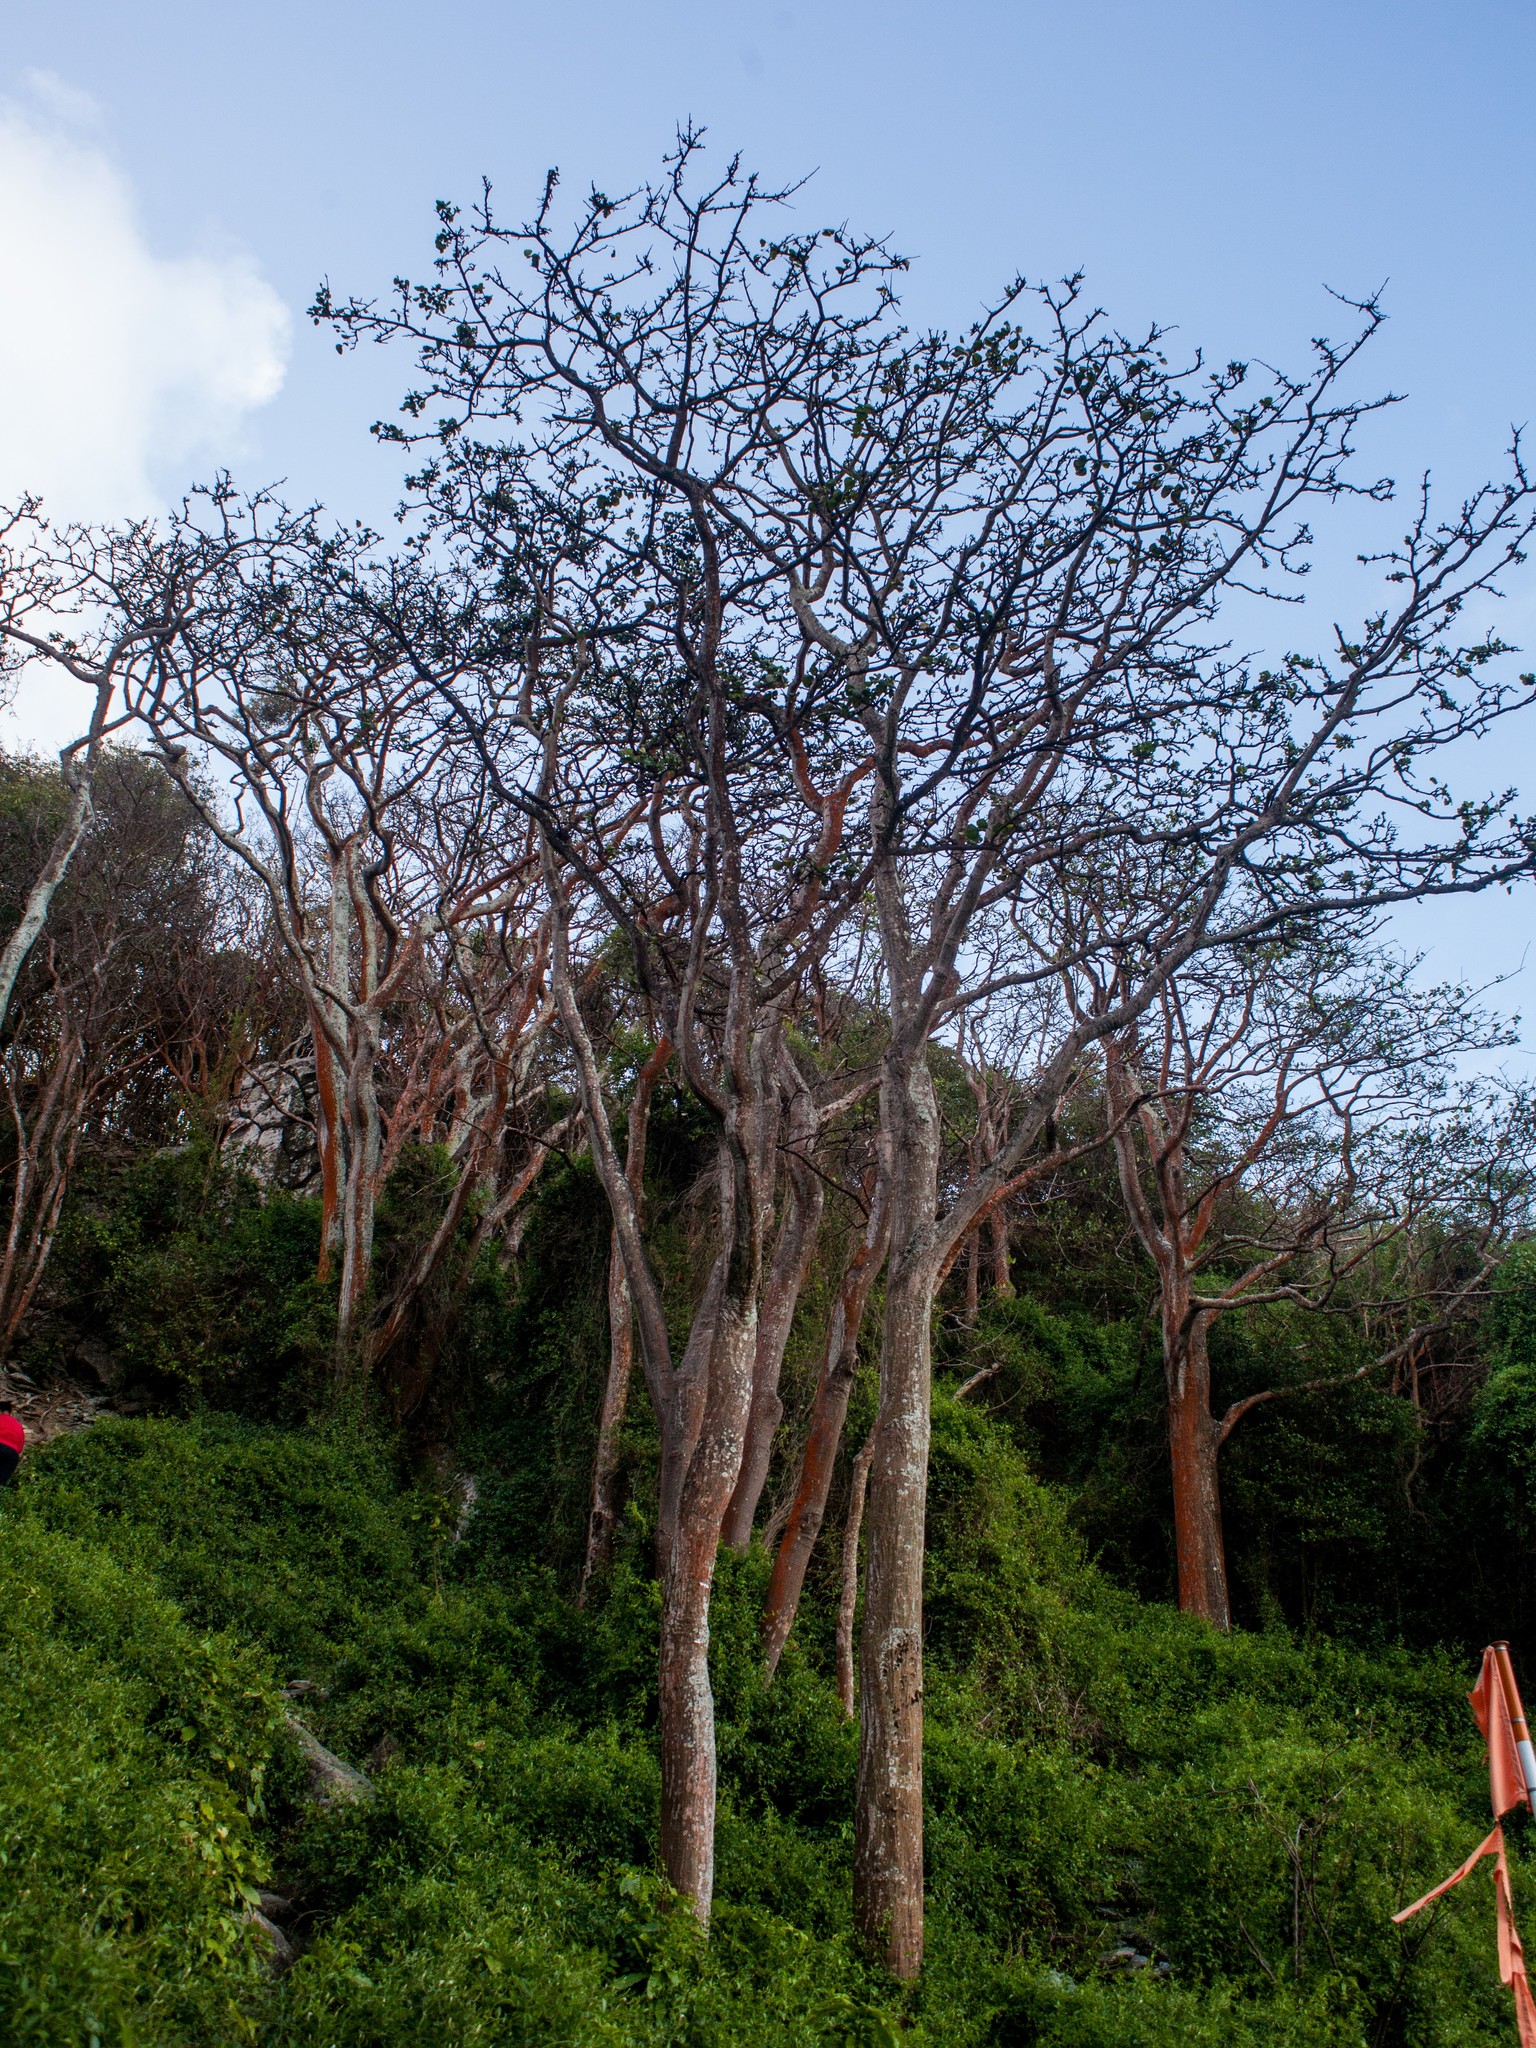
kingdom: Plantae
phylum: Tracheophyta
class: Magnoliopsida
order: Fabales
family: Fabaceae
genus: Erythrina
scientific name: Erythrina velutina
